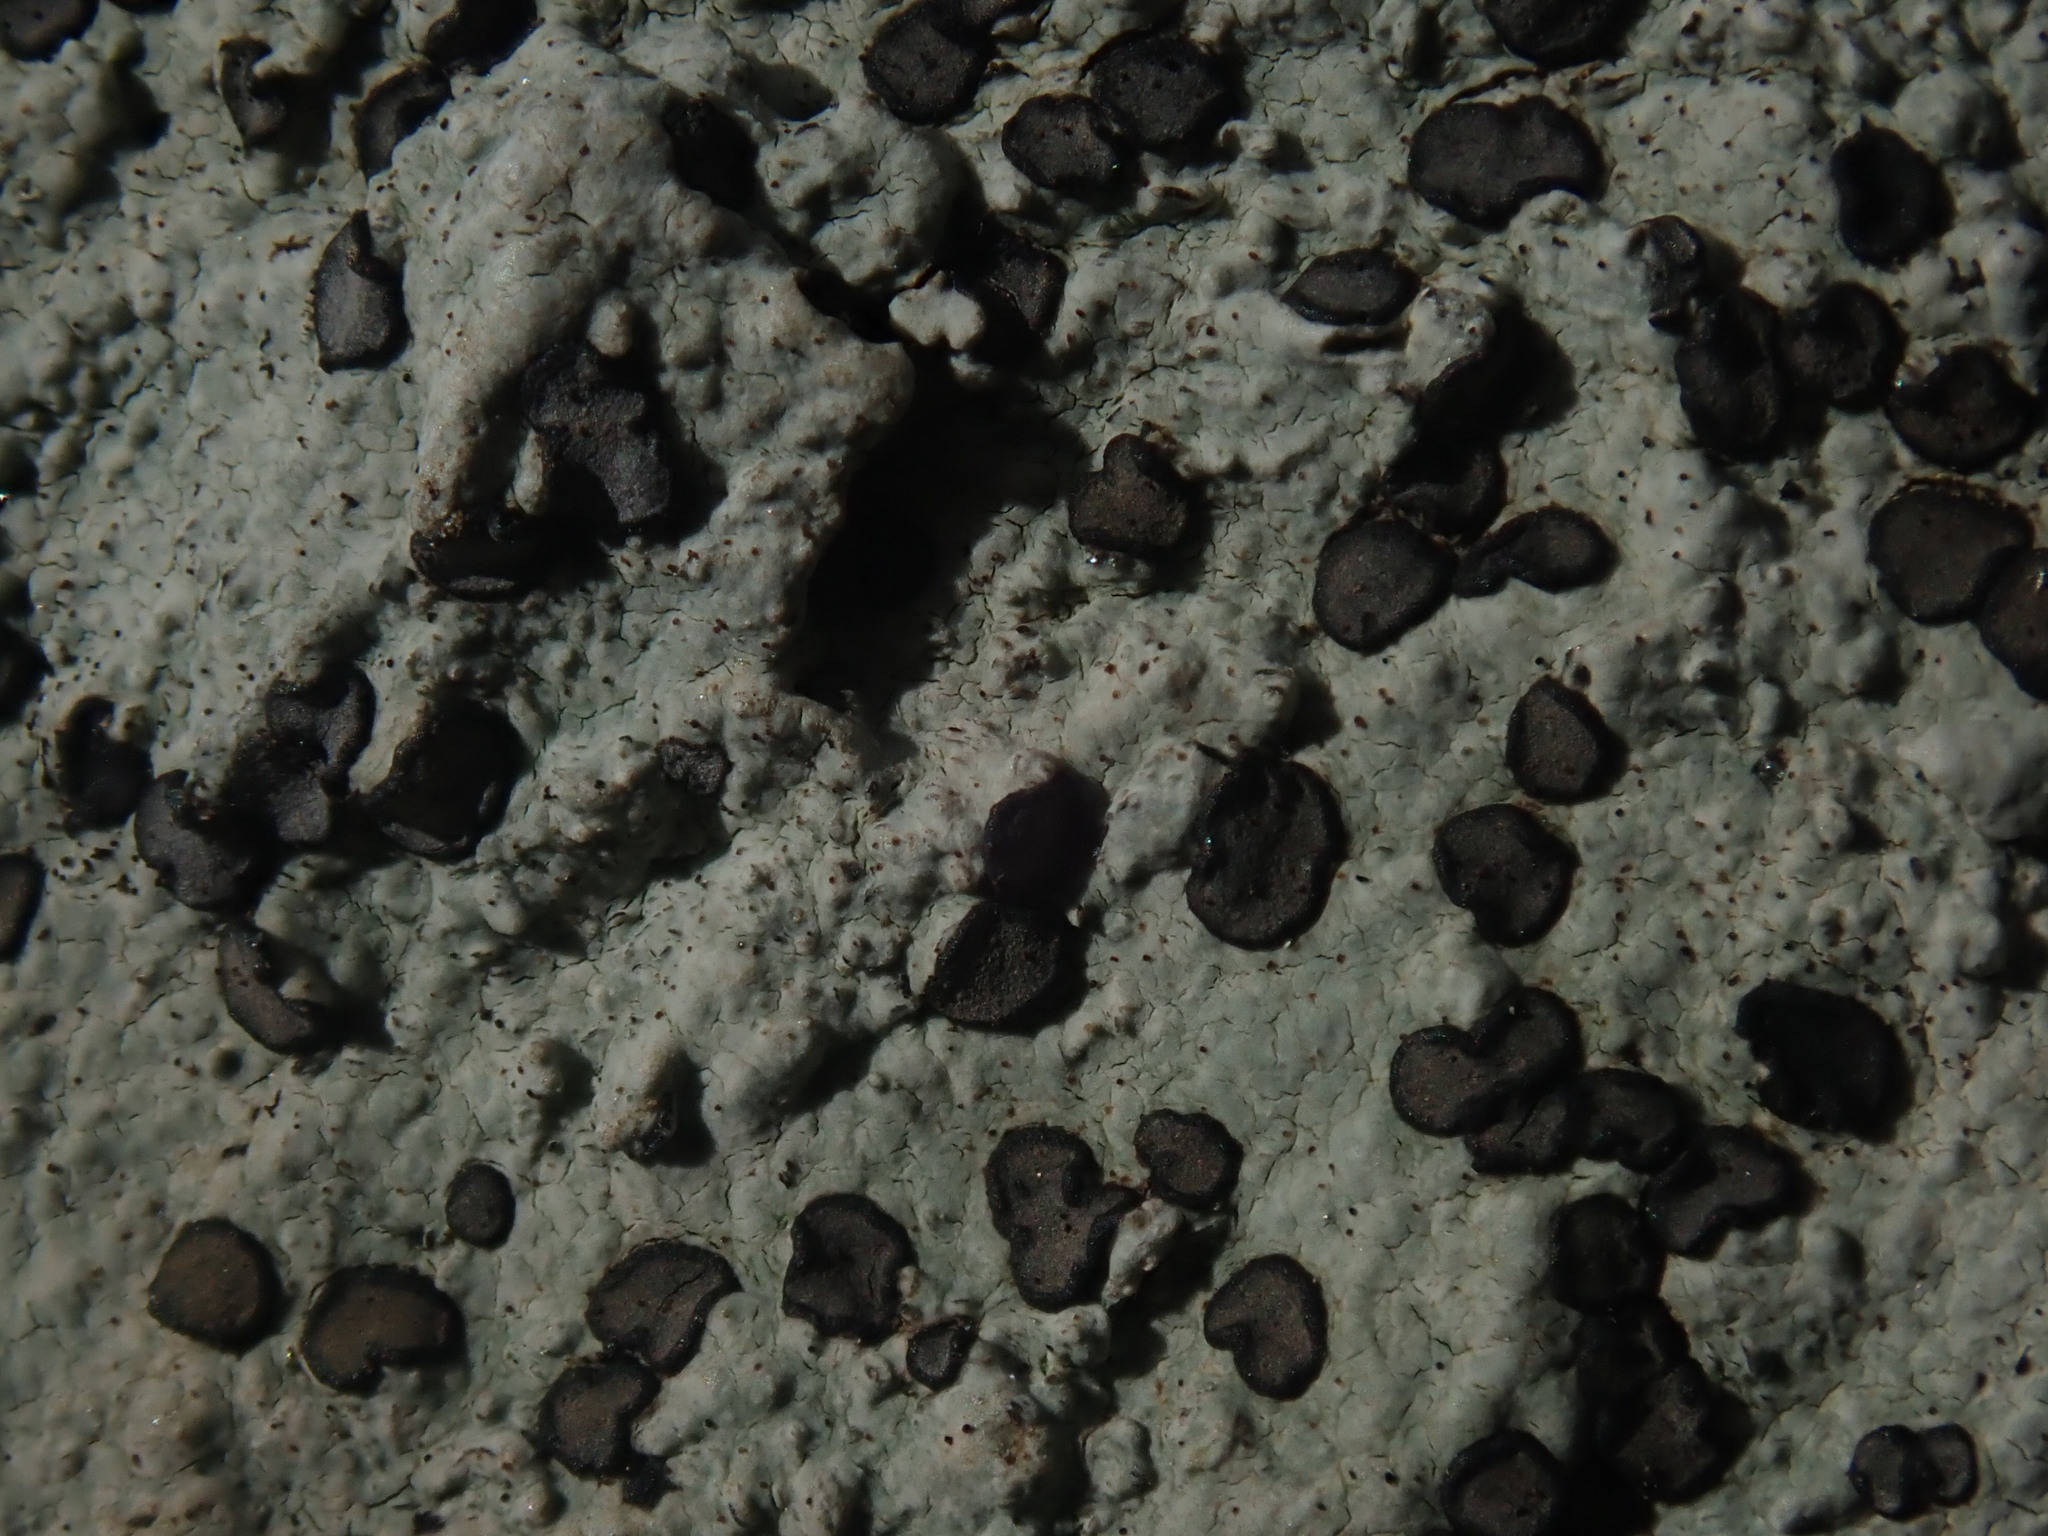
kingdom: Fungi
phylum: Ascomycota
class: Lecanoromycetes
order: Lecideales
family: Lecideaceae
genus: Porpidia
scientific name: Porpidia albocaerulescens
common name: Smokey-eyed boulder lichen
